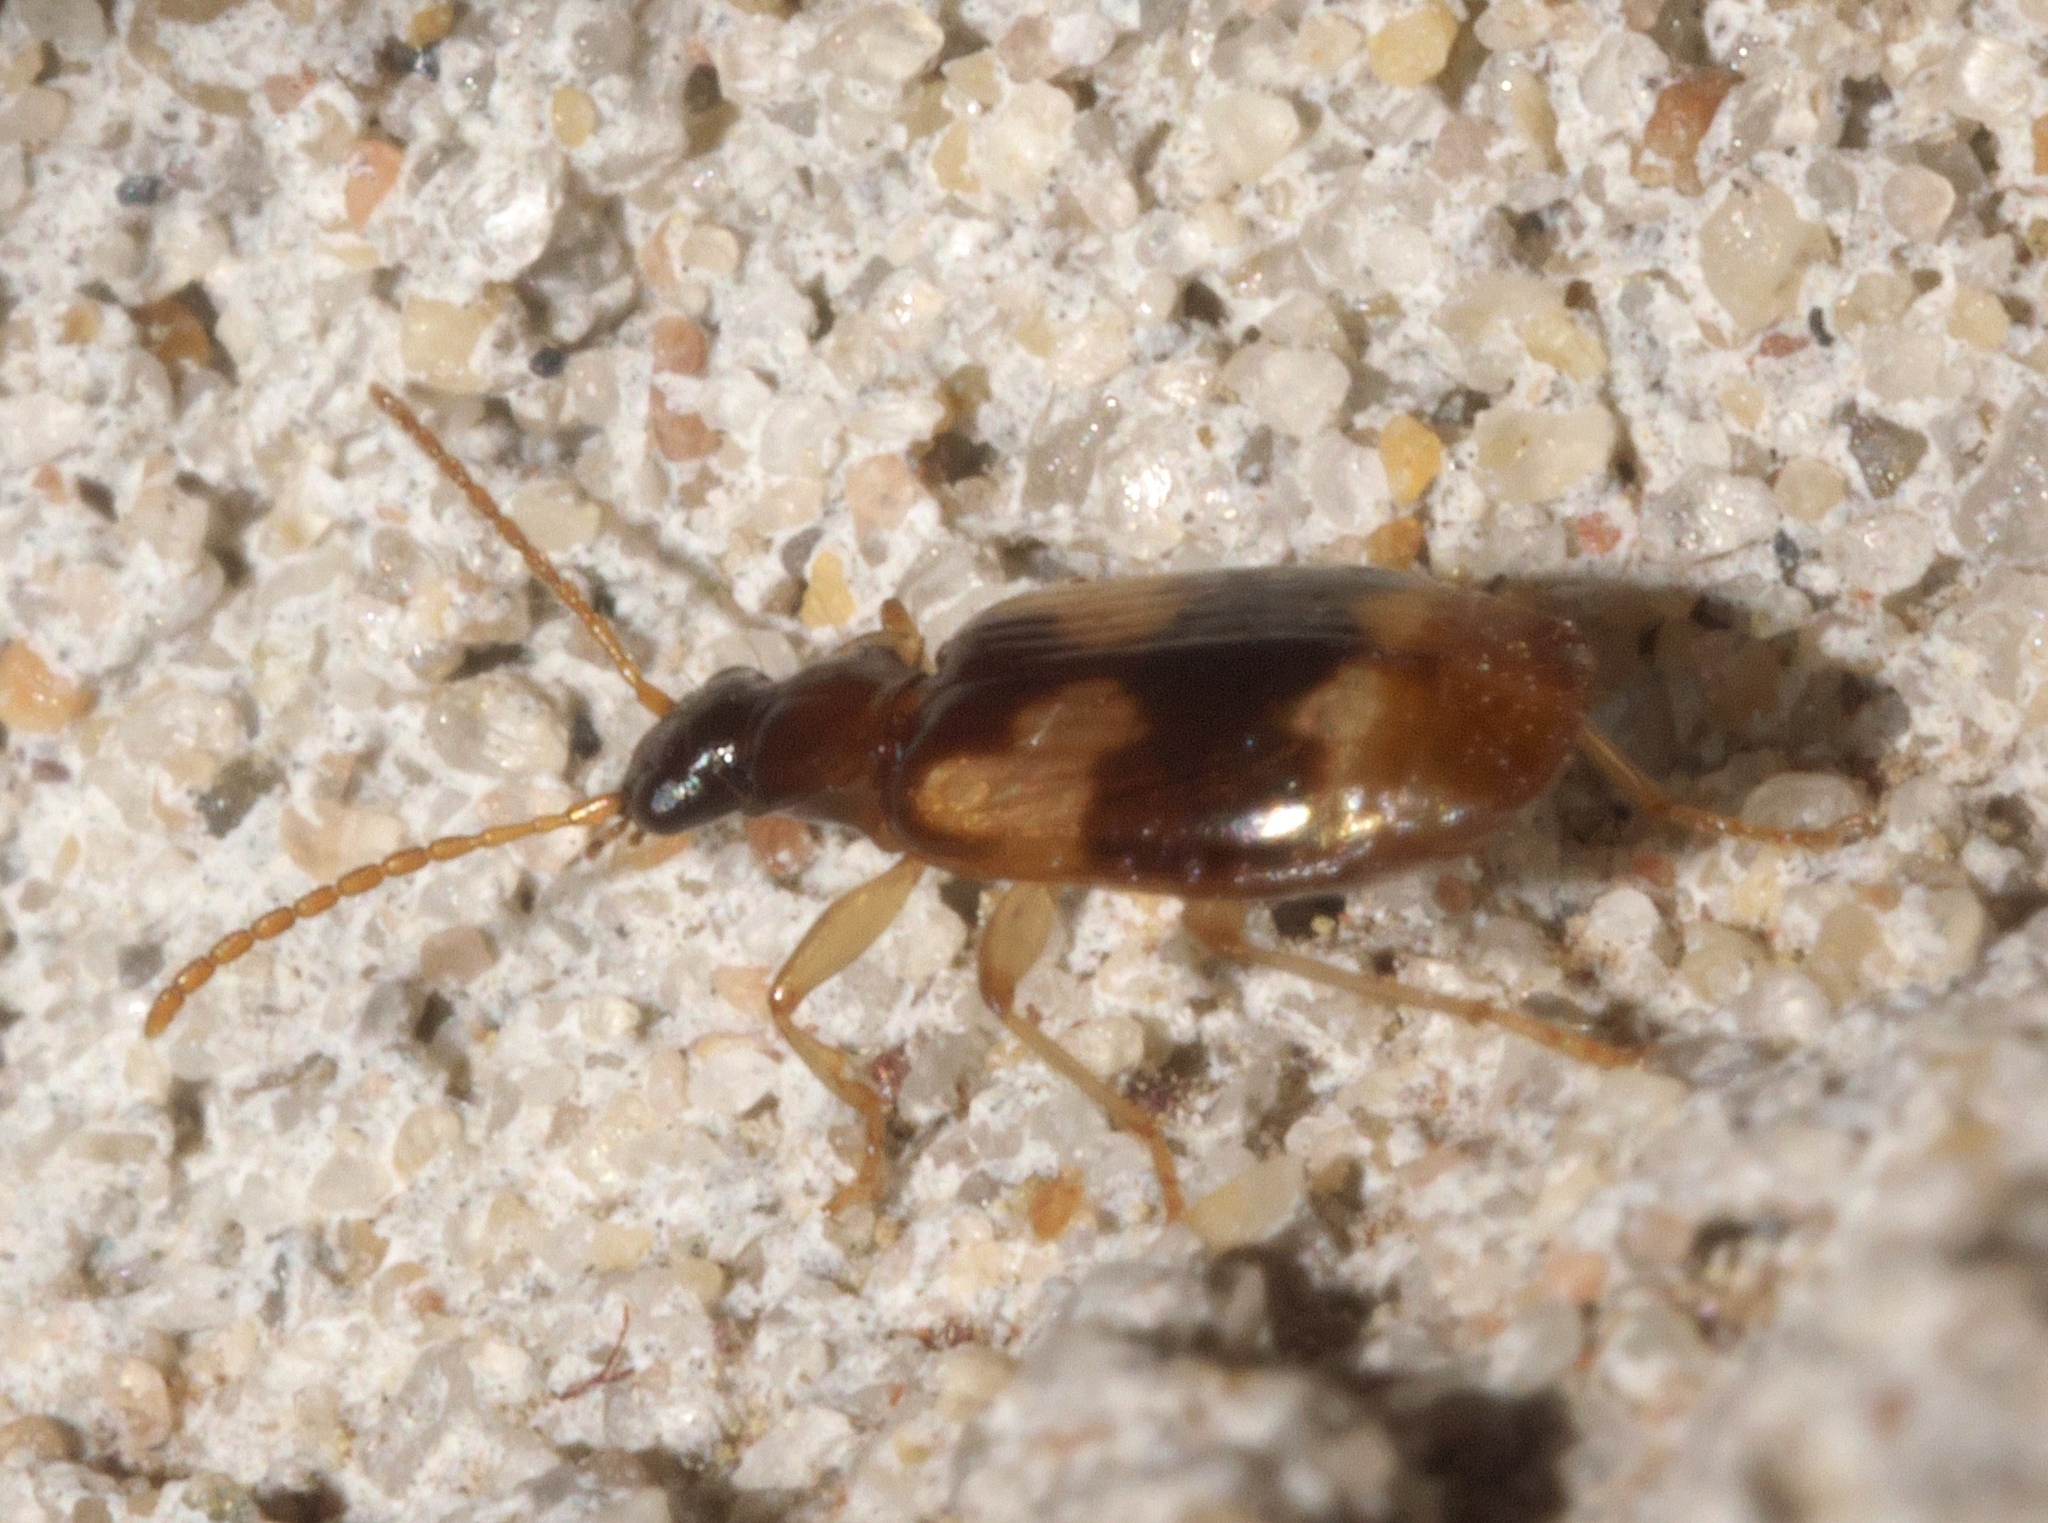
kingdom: Animalia
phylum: Arthropoda
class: Insecta
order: Coleoptera
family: Carabidae
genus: Lebia
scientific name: Lebia ornata
